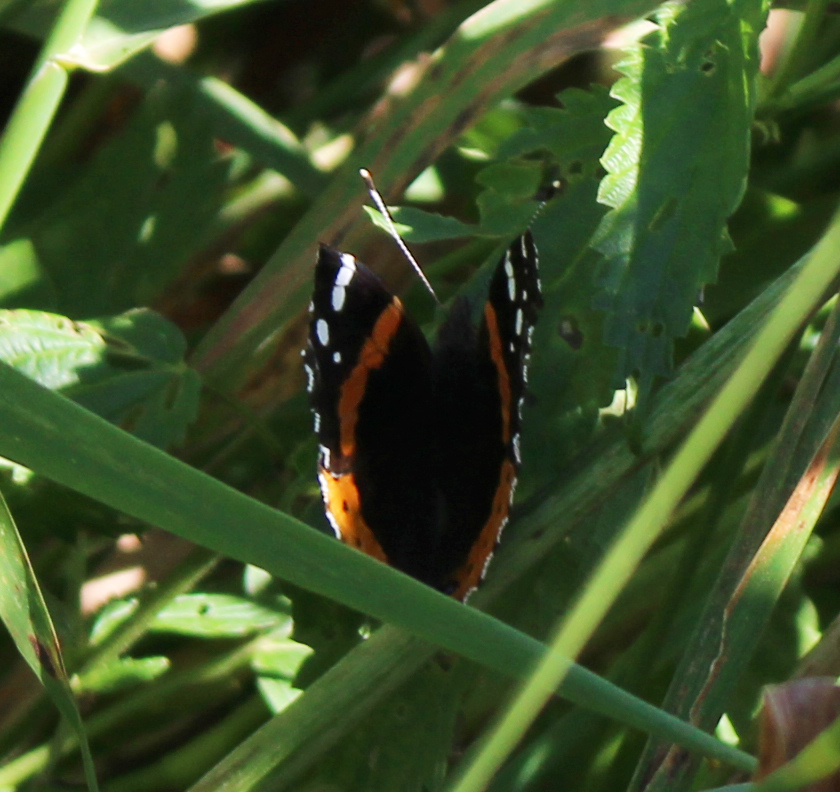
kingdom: Animalia
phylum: Arthropoda
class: Insecta
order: Lepidoptera
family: Nymphalidae
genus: Vanessa
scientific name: Vanessa atalanta
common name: Red admiral
